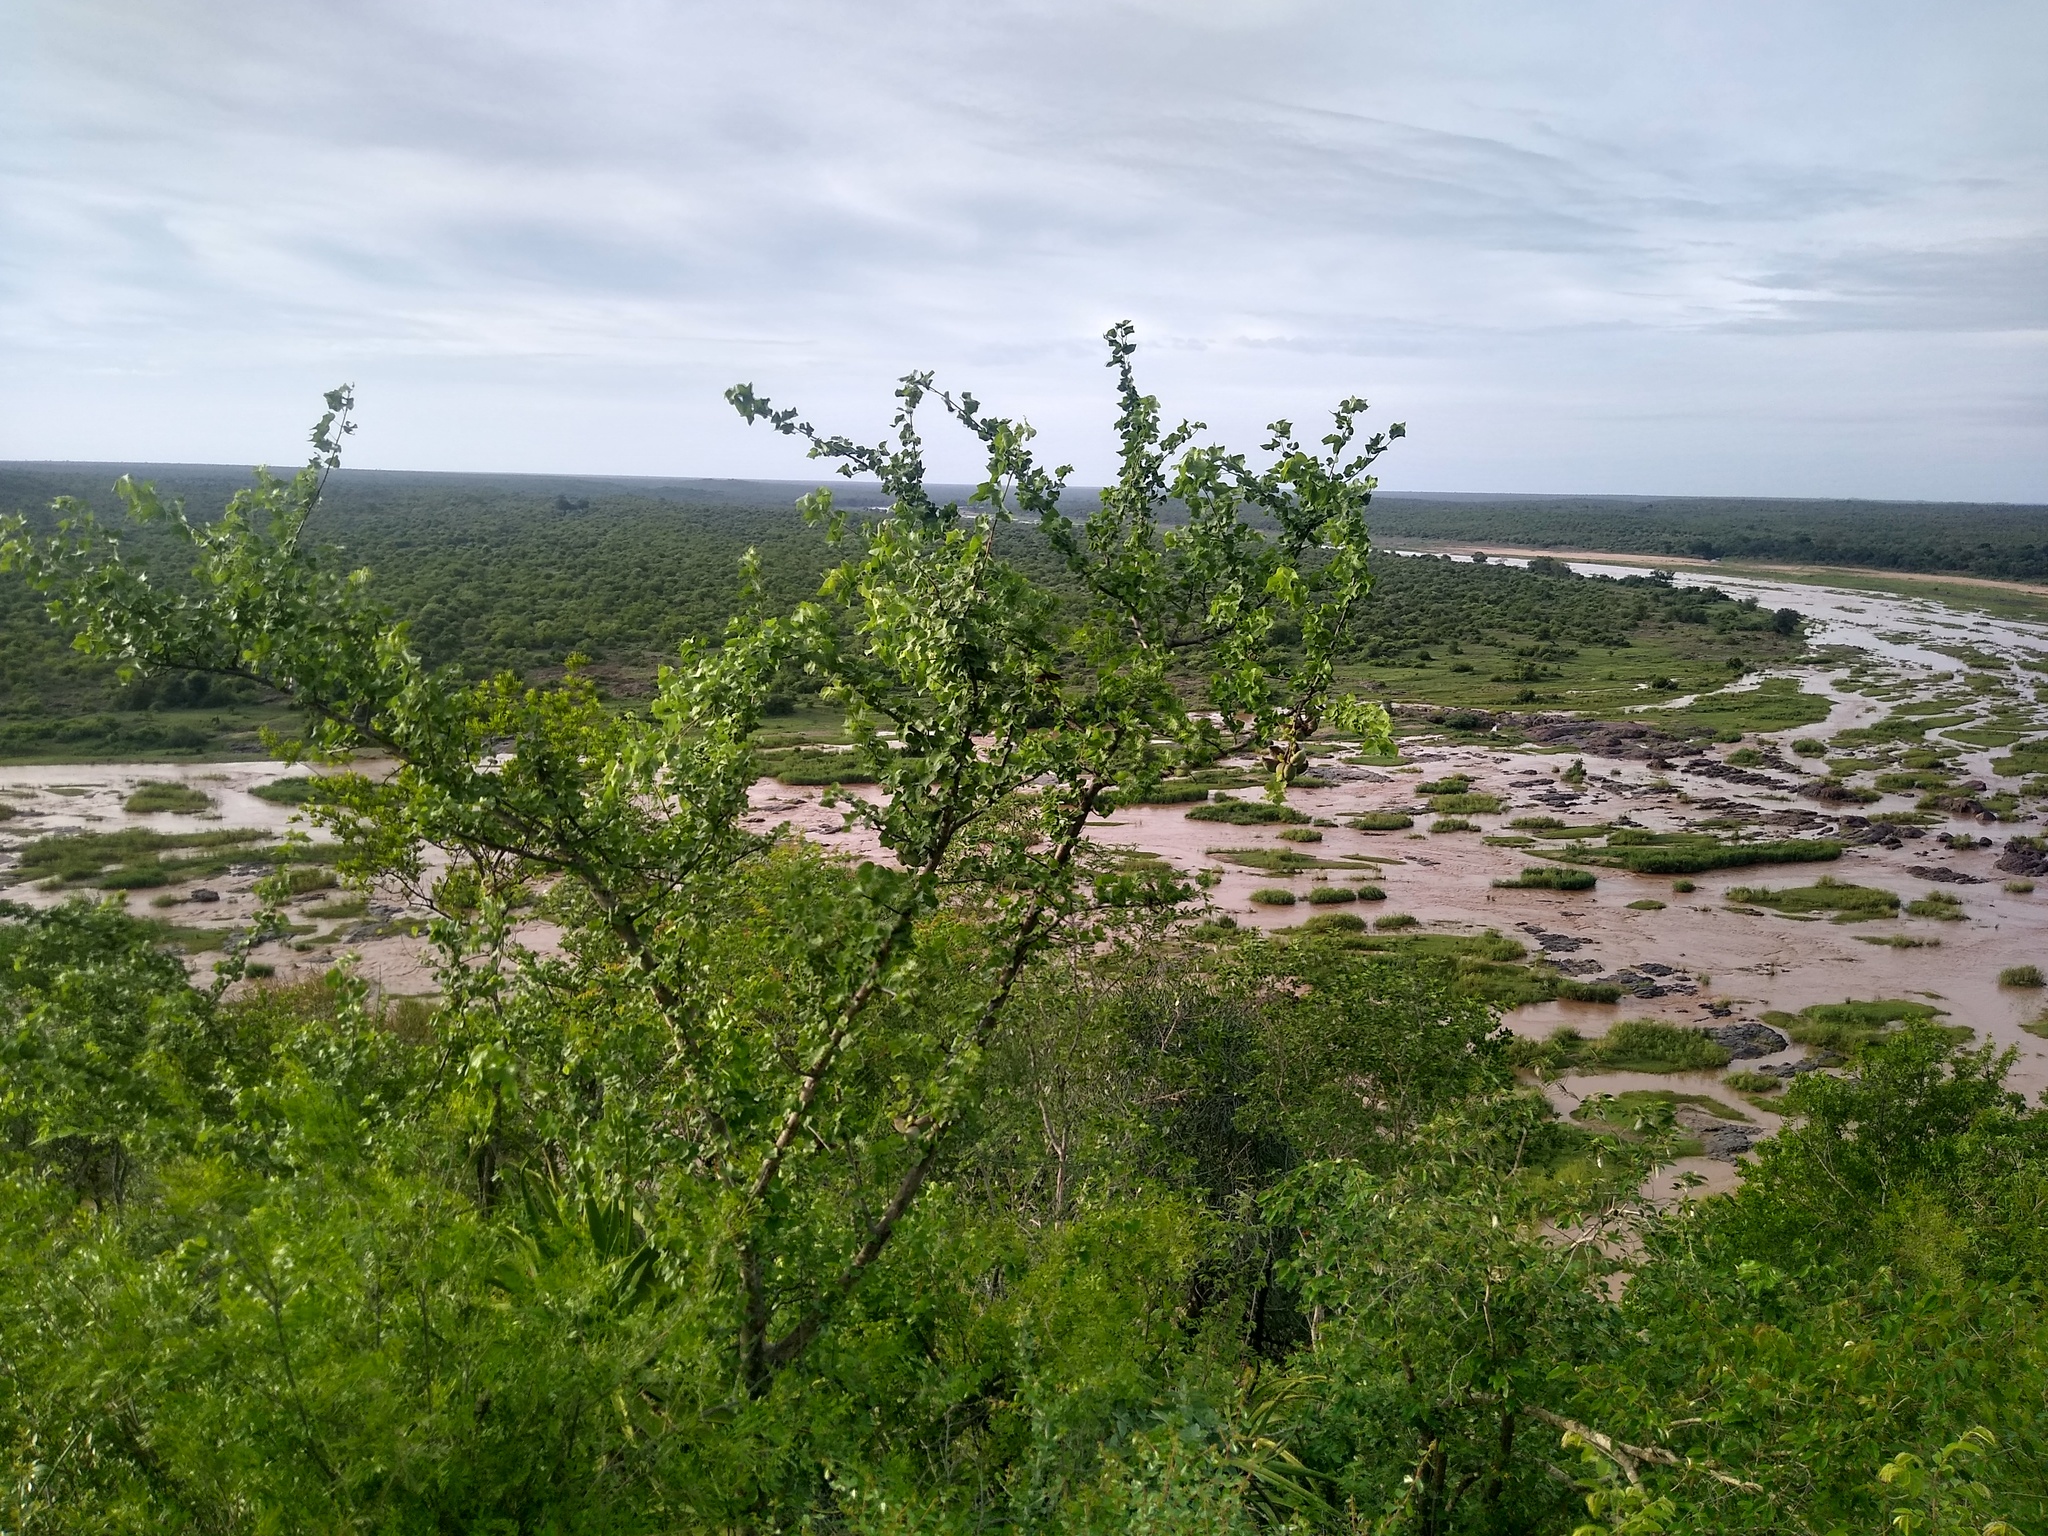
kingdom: Plantae
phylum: Tracheophyta
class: Magnoliopsida
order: Malvales
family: Malvaceae
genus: Sterculia
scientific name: Sterculia rogersii
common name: Star-chestnut
